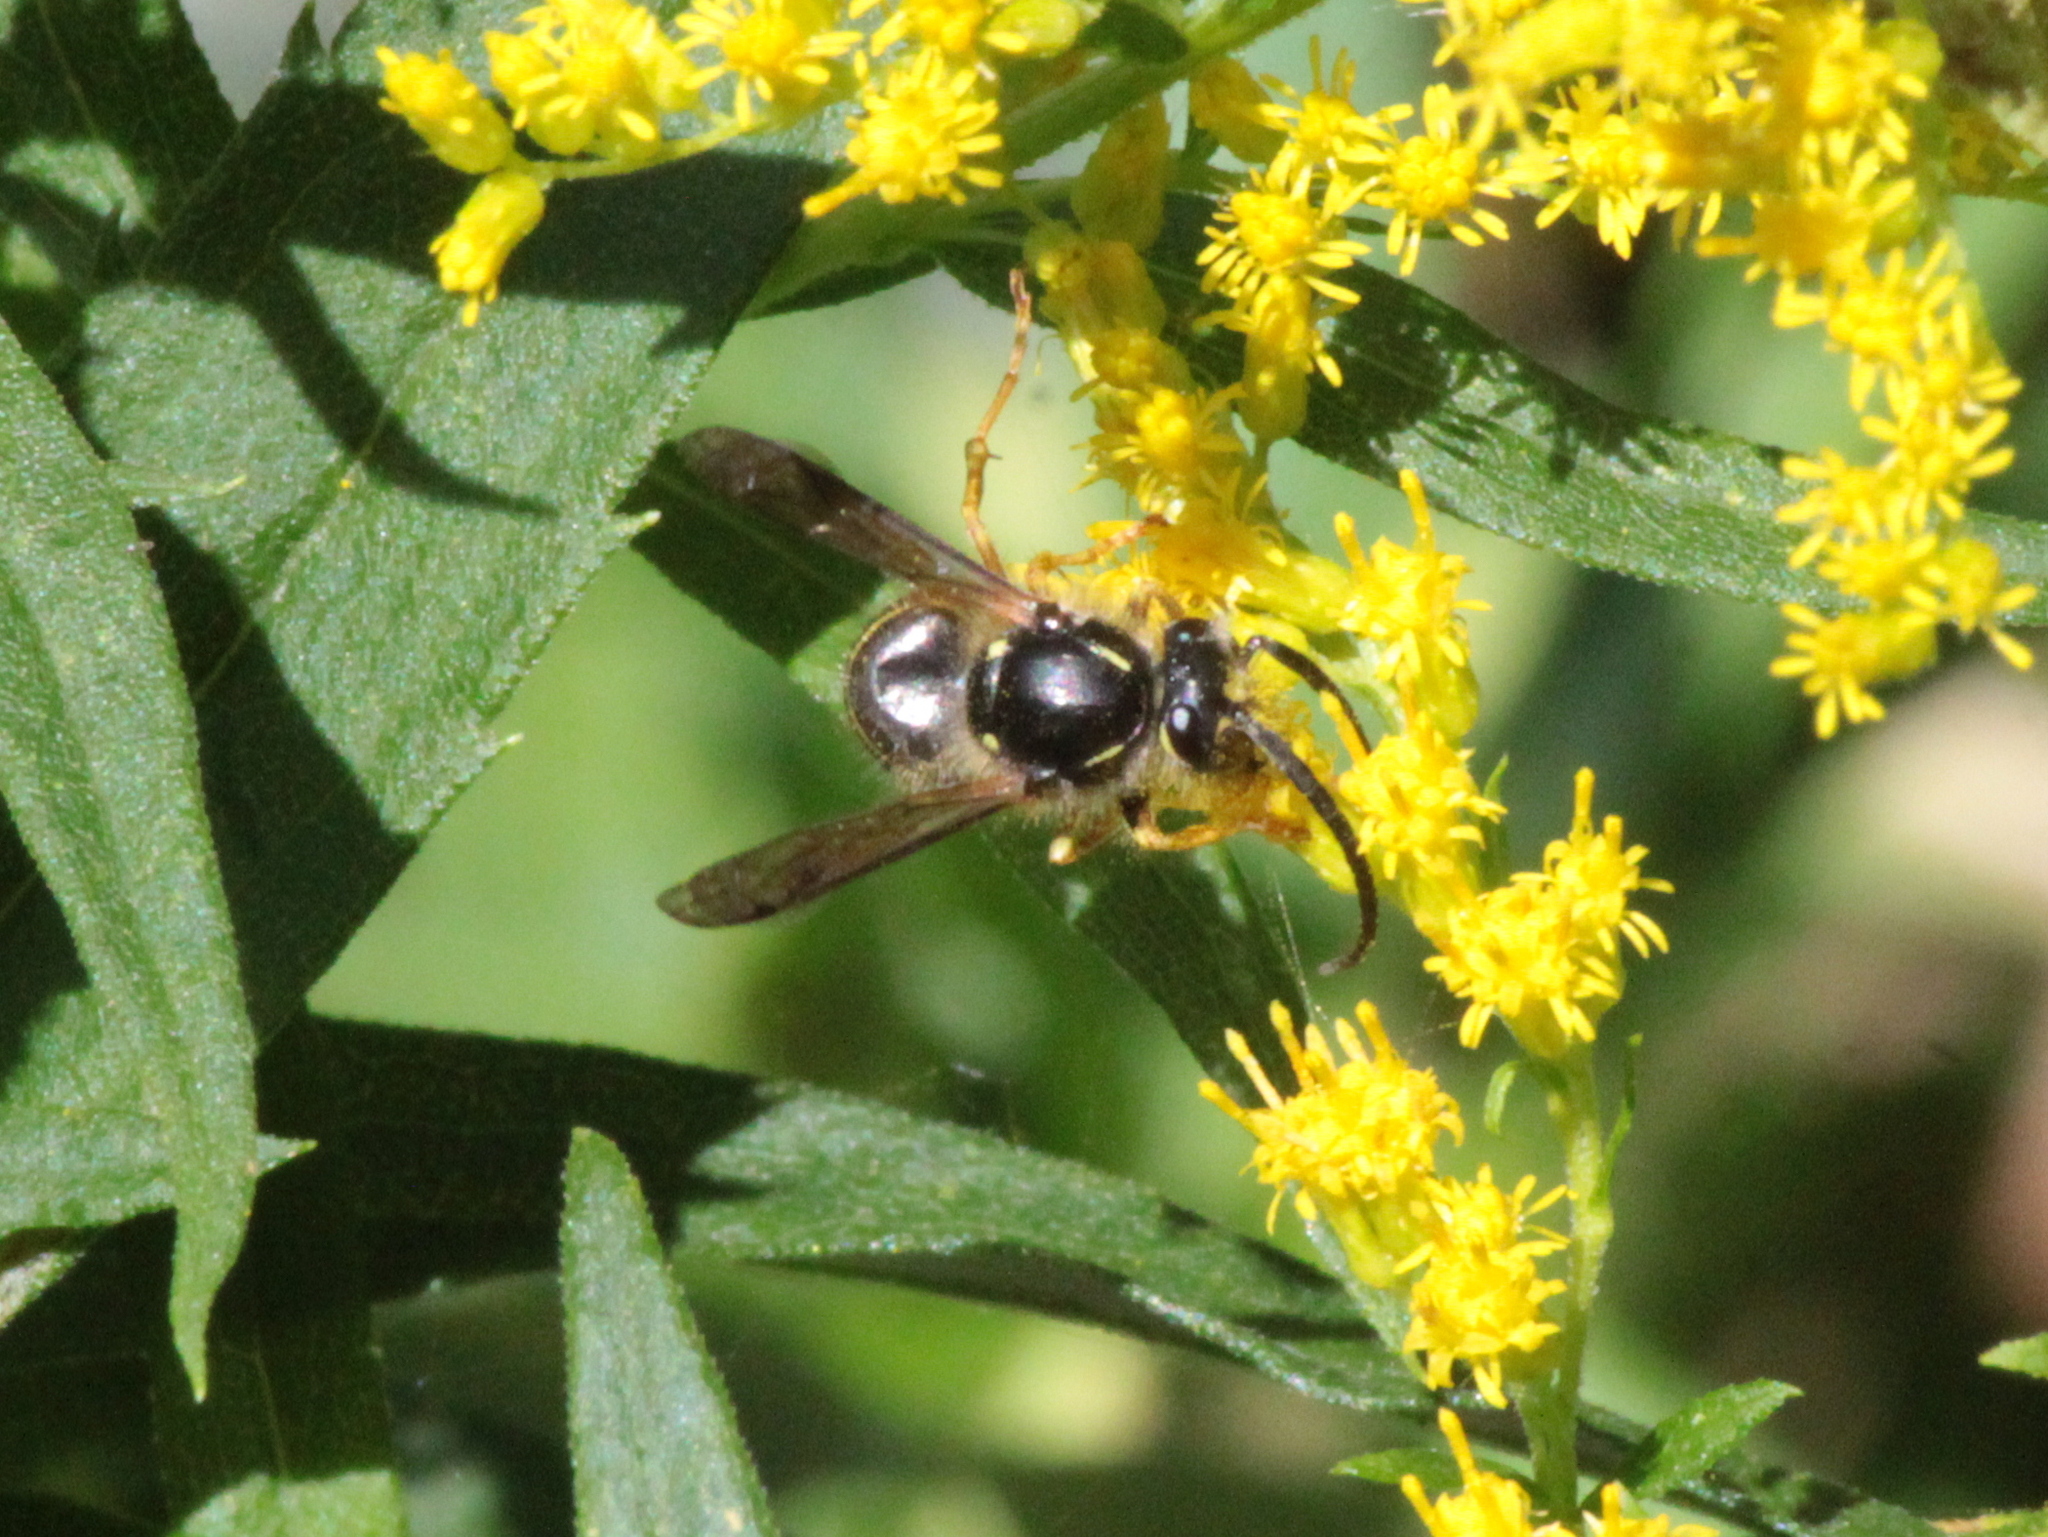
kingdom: Animalia
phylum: Arthropoda
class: Insecta
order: Hymenoptera
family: Vespidae
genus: Dolichovespula
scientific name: Dolichovespula norvegicoides
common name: Northern aerial yellowjacket
